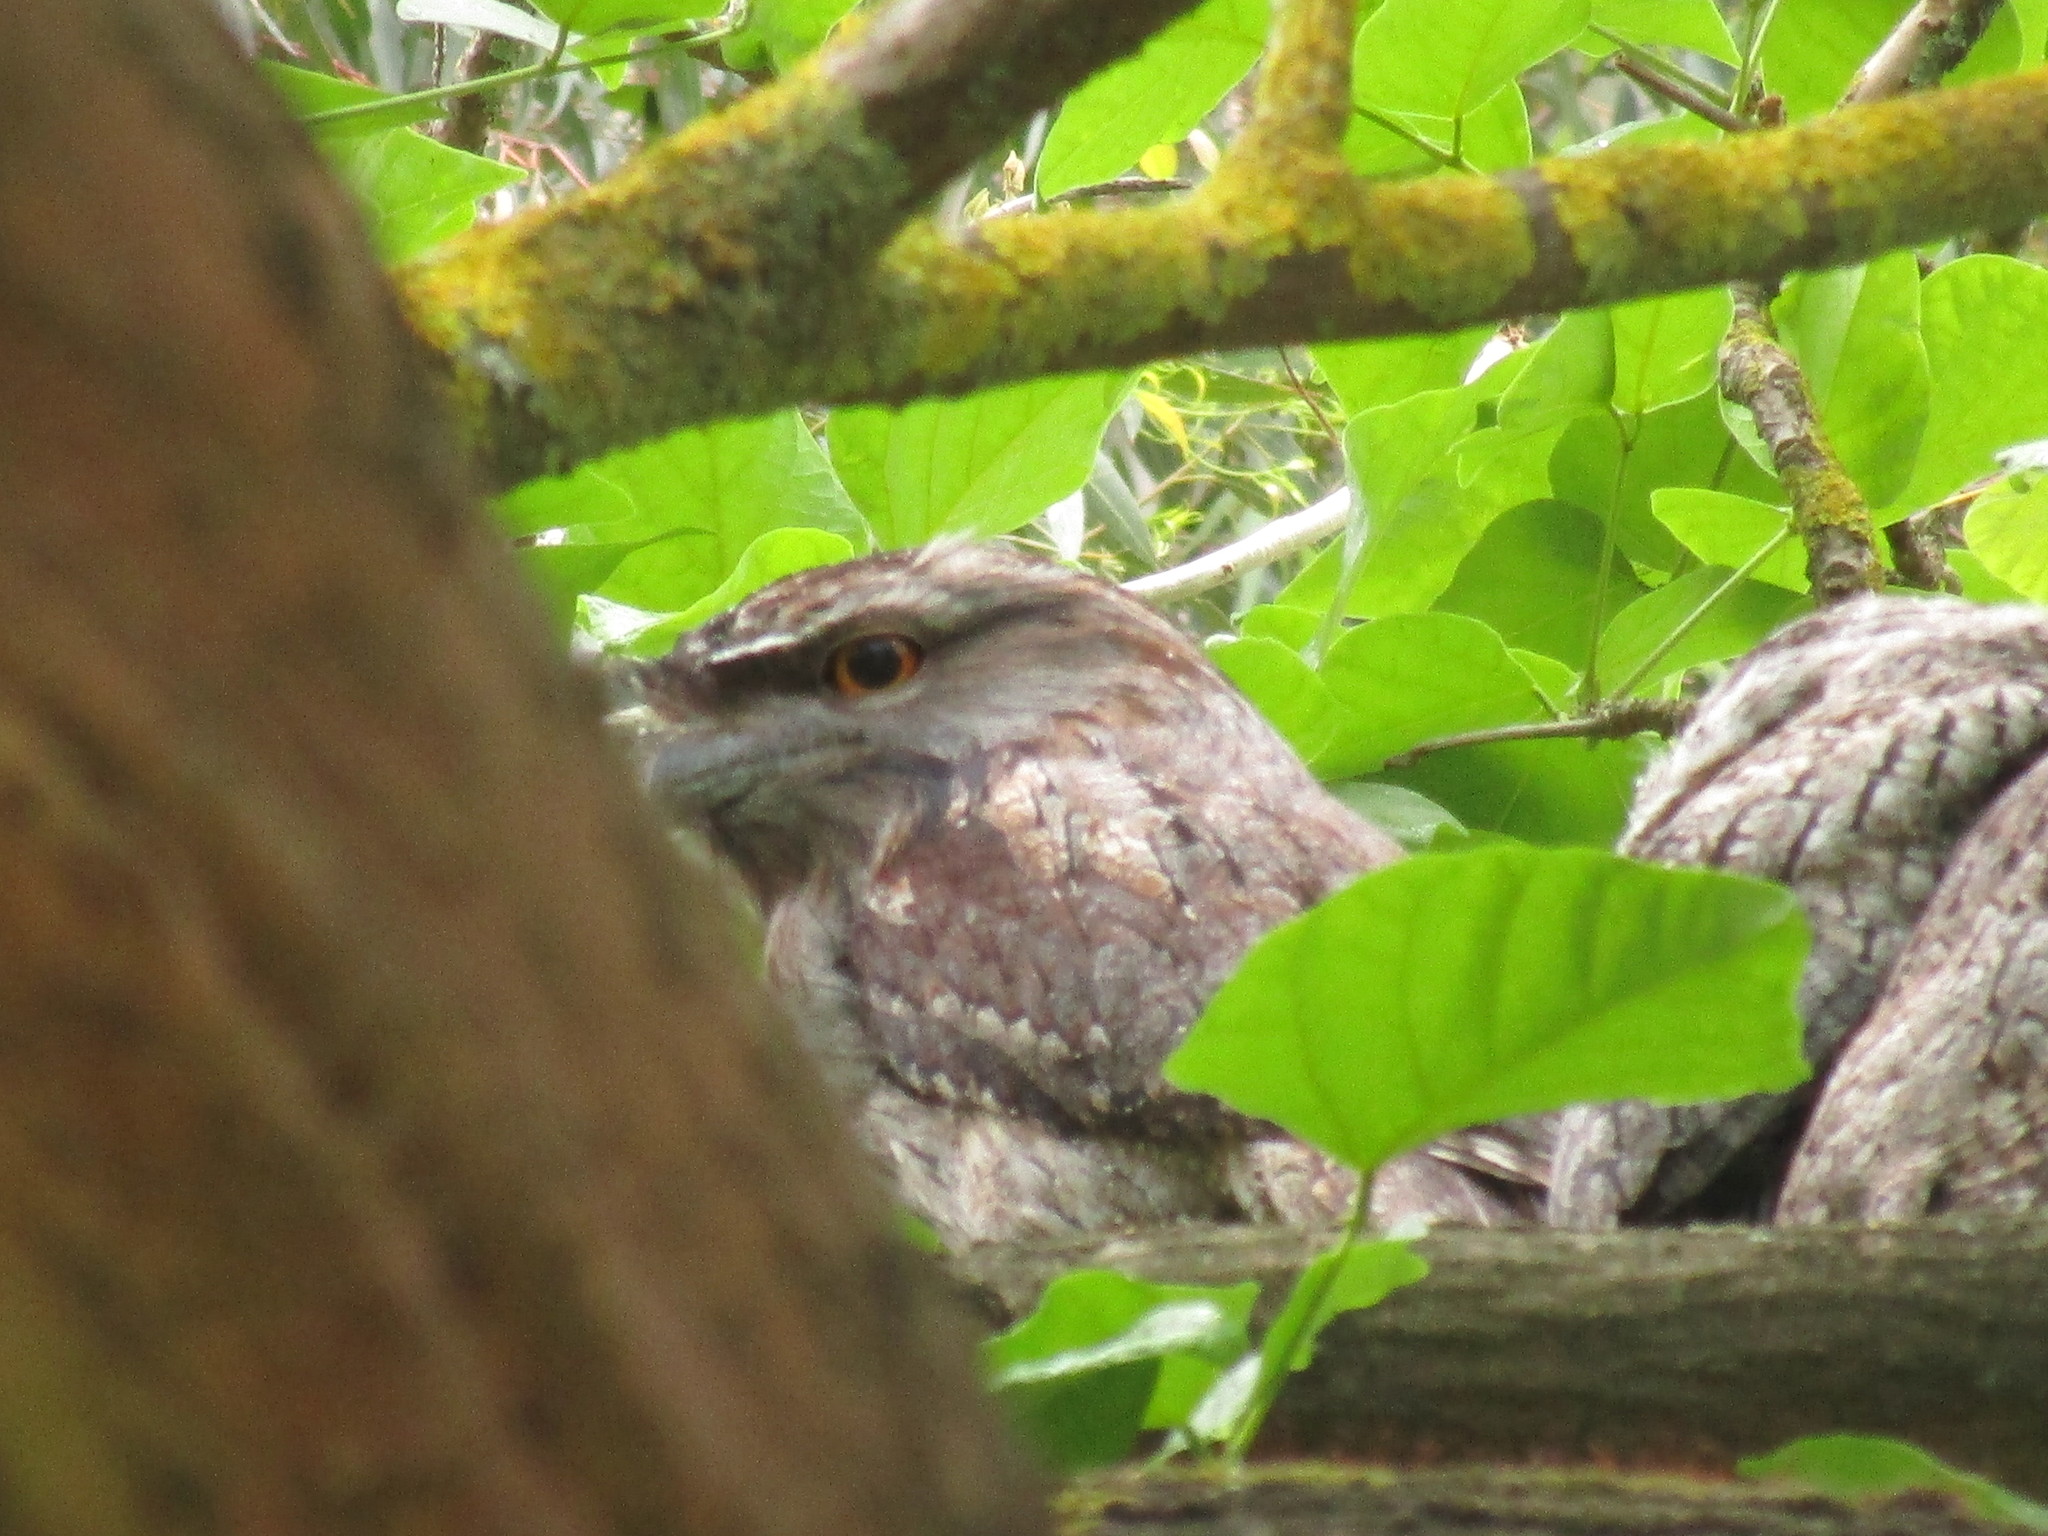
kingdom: Animalia
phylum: Chordata
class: Aves
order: Caprimulgiformes
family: Podargidae
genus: Podargus
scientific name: Podargus strigoides
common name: Tawny frogmouth
